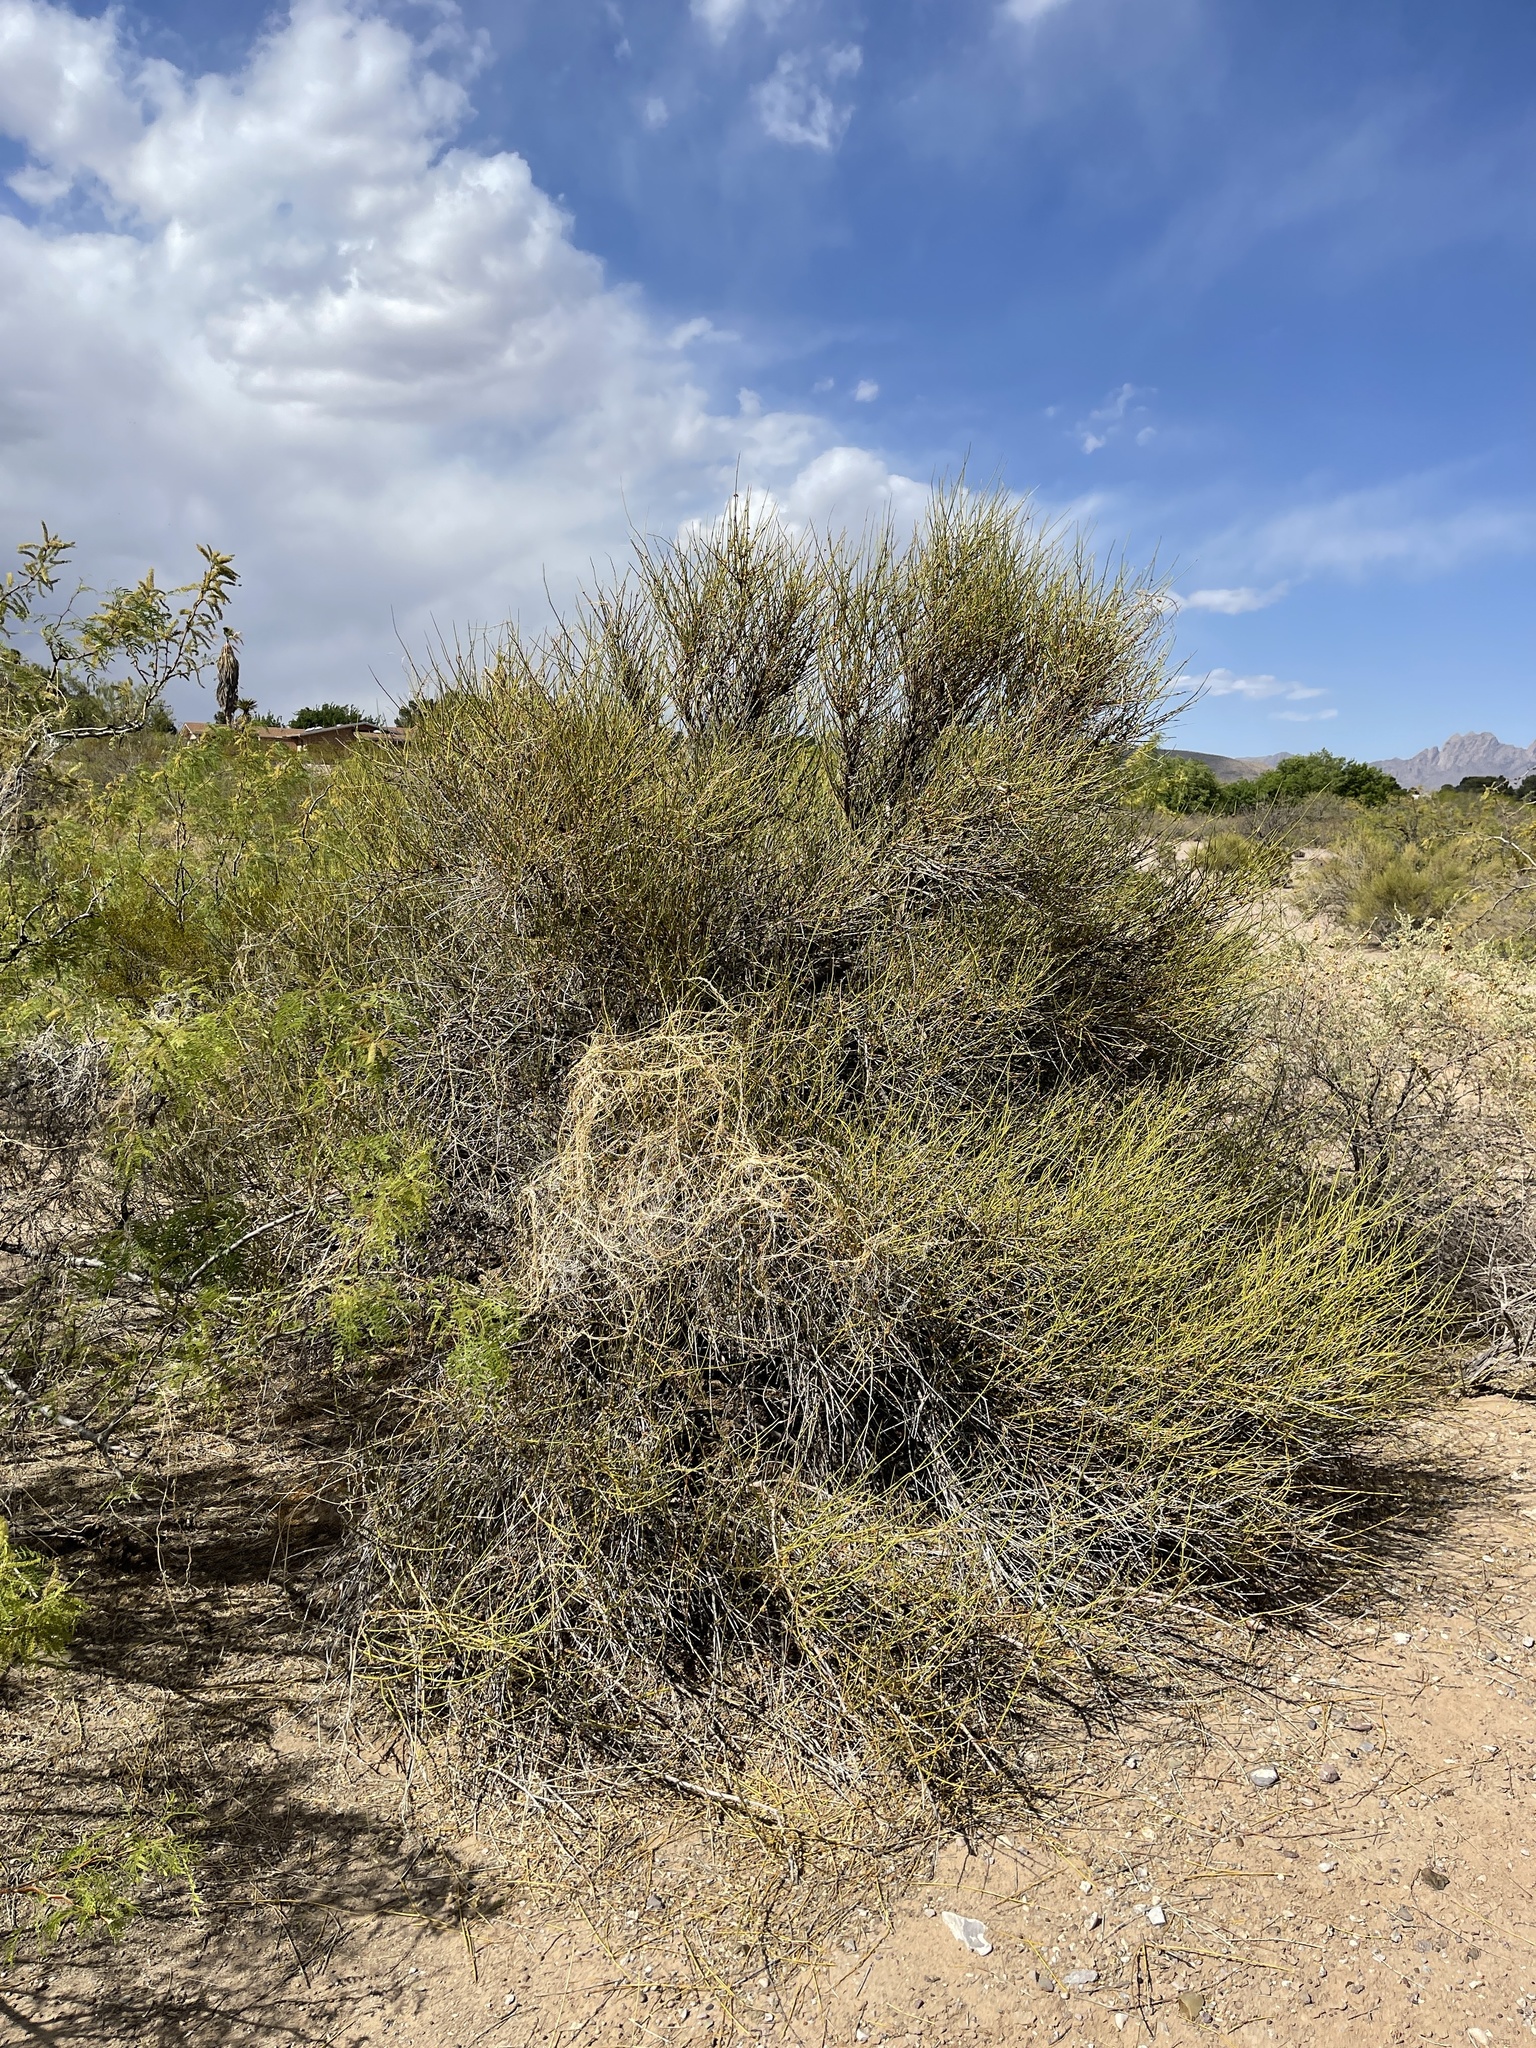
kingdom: Plantae
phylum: Tracheophyta
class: Gnetopsida
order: Ephedrales
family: Ephedraceae
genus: Ephedra
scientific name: Ephedra trifurca
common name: Mexican-tea
